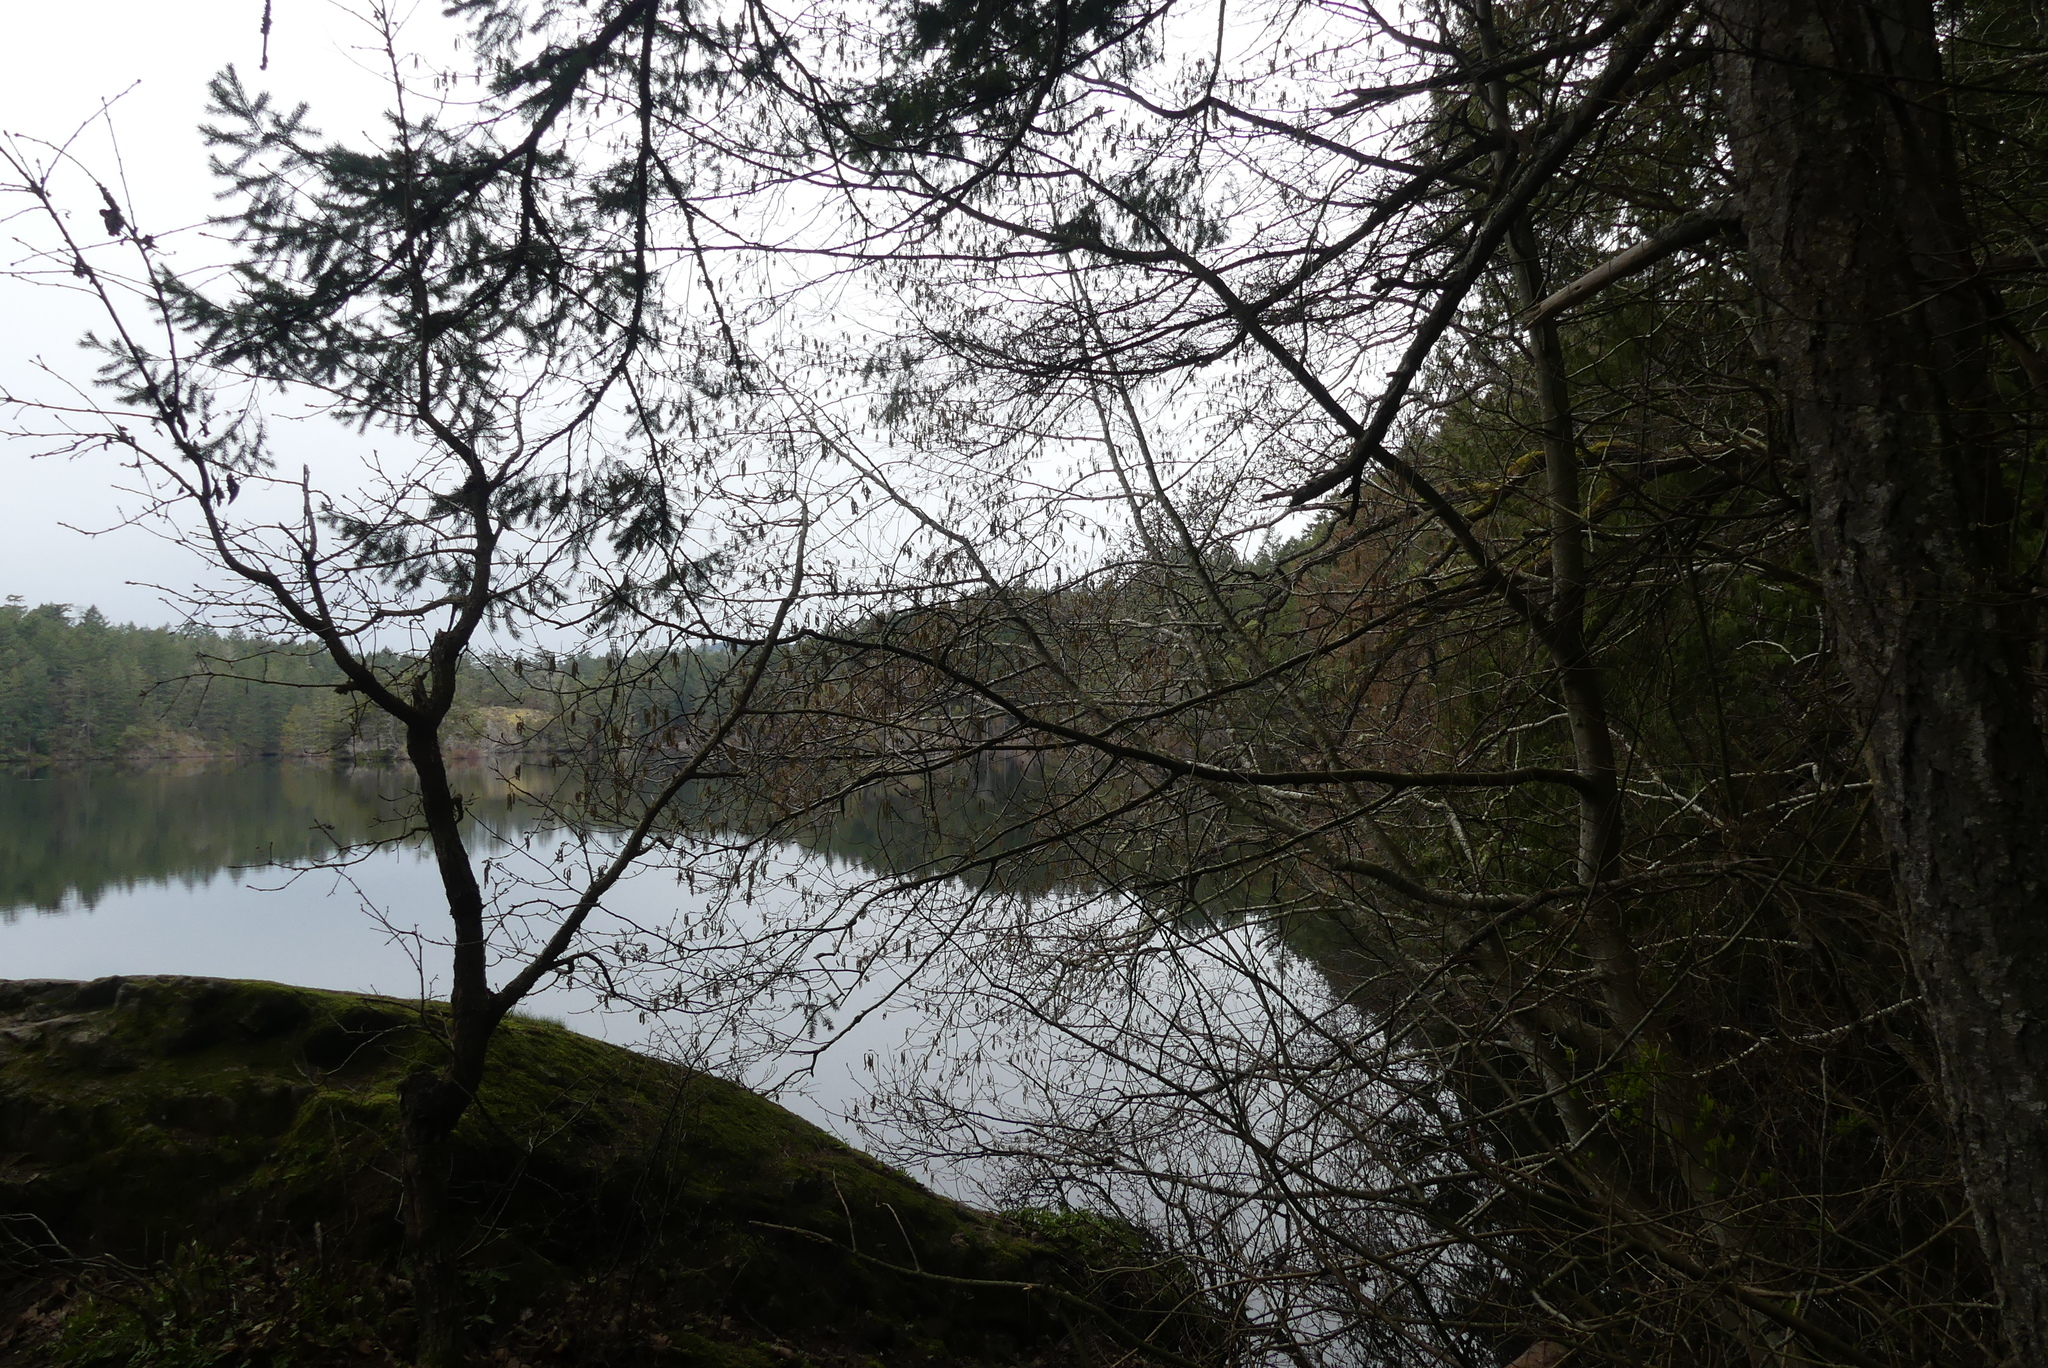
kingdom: Plantae
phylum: Tracheophyta
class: Magnoliopsida
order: Fagales
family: Betulaceae
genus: Alnus
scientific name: Alnus rubra
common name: Red alder
